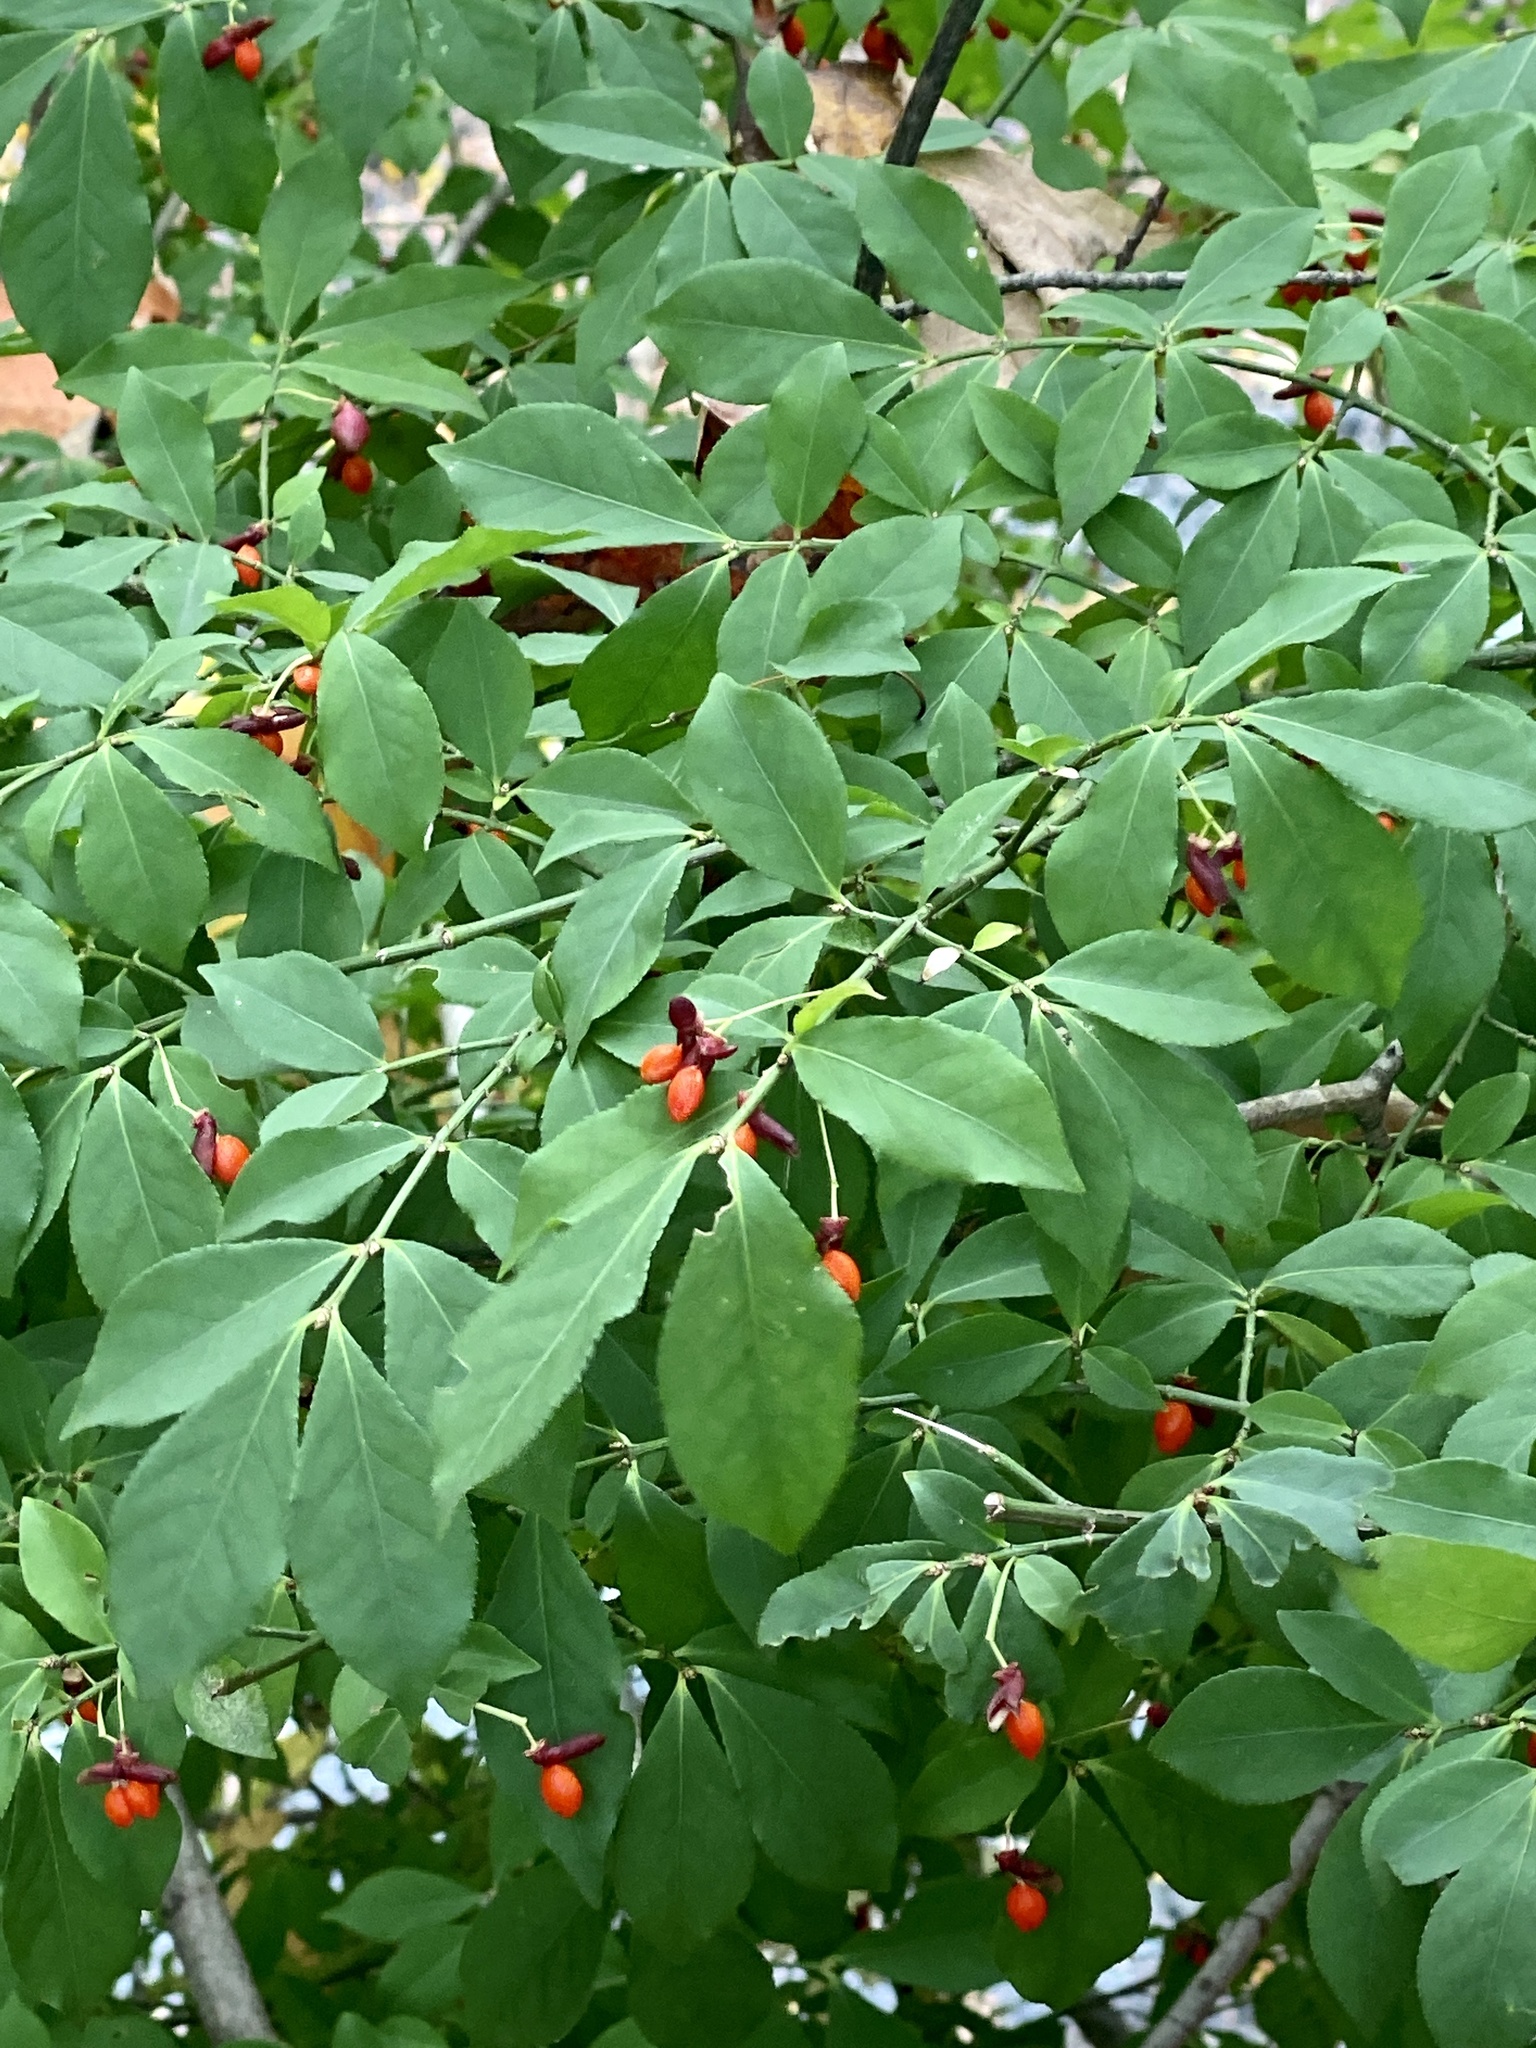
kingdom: Plantae
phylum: Tracheophyta
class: Magnoliopsida
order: Celastrales
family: Celastraceae
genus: Euonymus
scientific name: Euonymus alatus
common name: Winged euonymus
